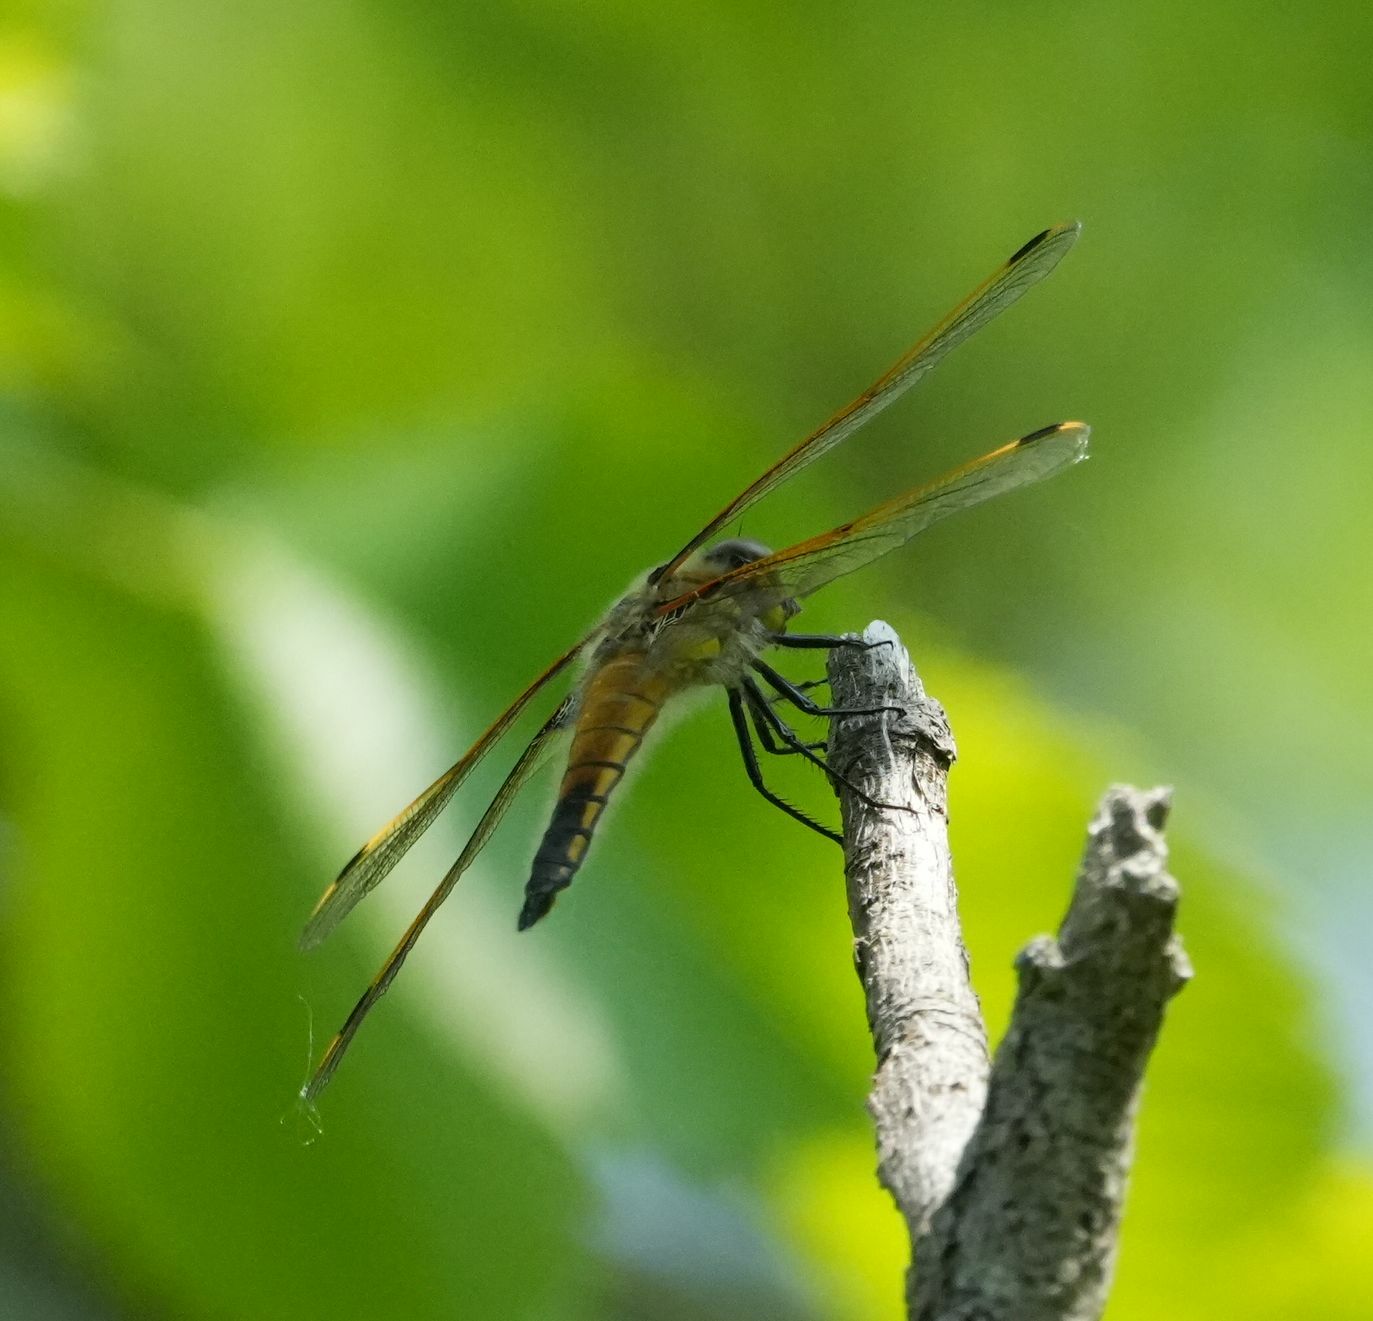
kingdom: Animalia
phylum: Arthropoda
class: Insecta
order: Odonata
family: Libellulidae
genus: Libellula
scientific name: Libellula quadrimaculata
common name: Four-spotted chaser
